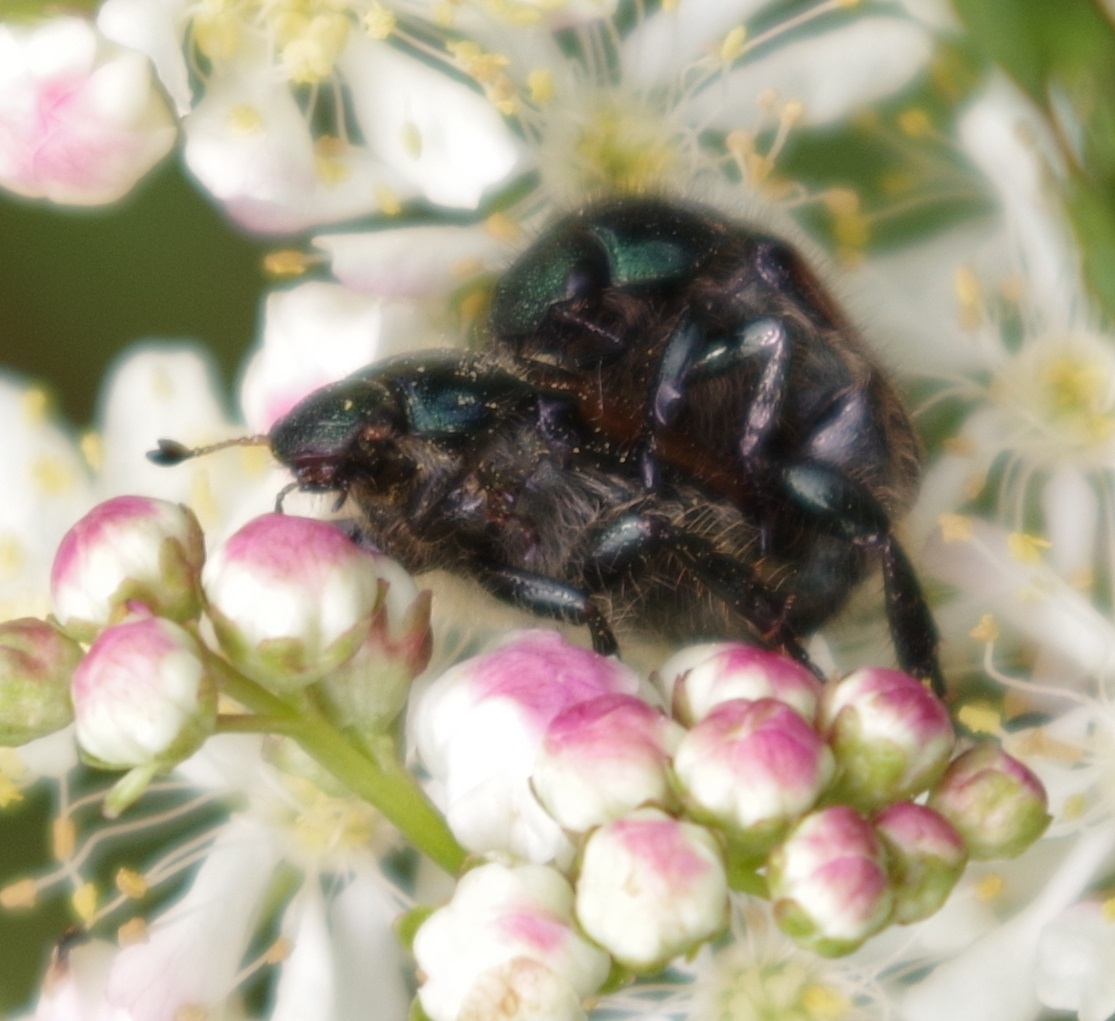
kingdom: Animalia
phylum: Arthropoda
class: Insecta
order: Coleoptera
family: Scarabaeidae
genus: Phyllopertha
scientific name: Phyllopertha horticola
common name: Garden chafer
